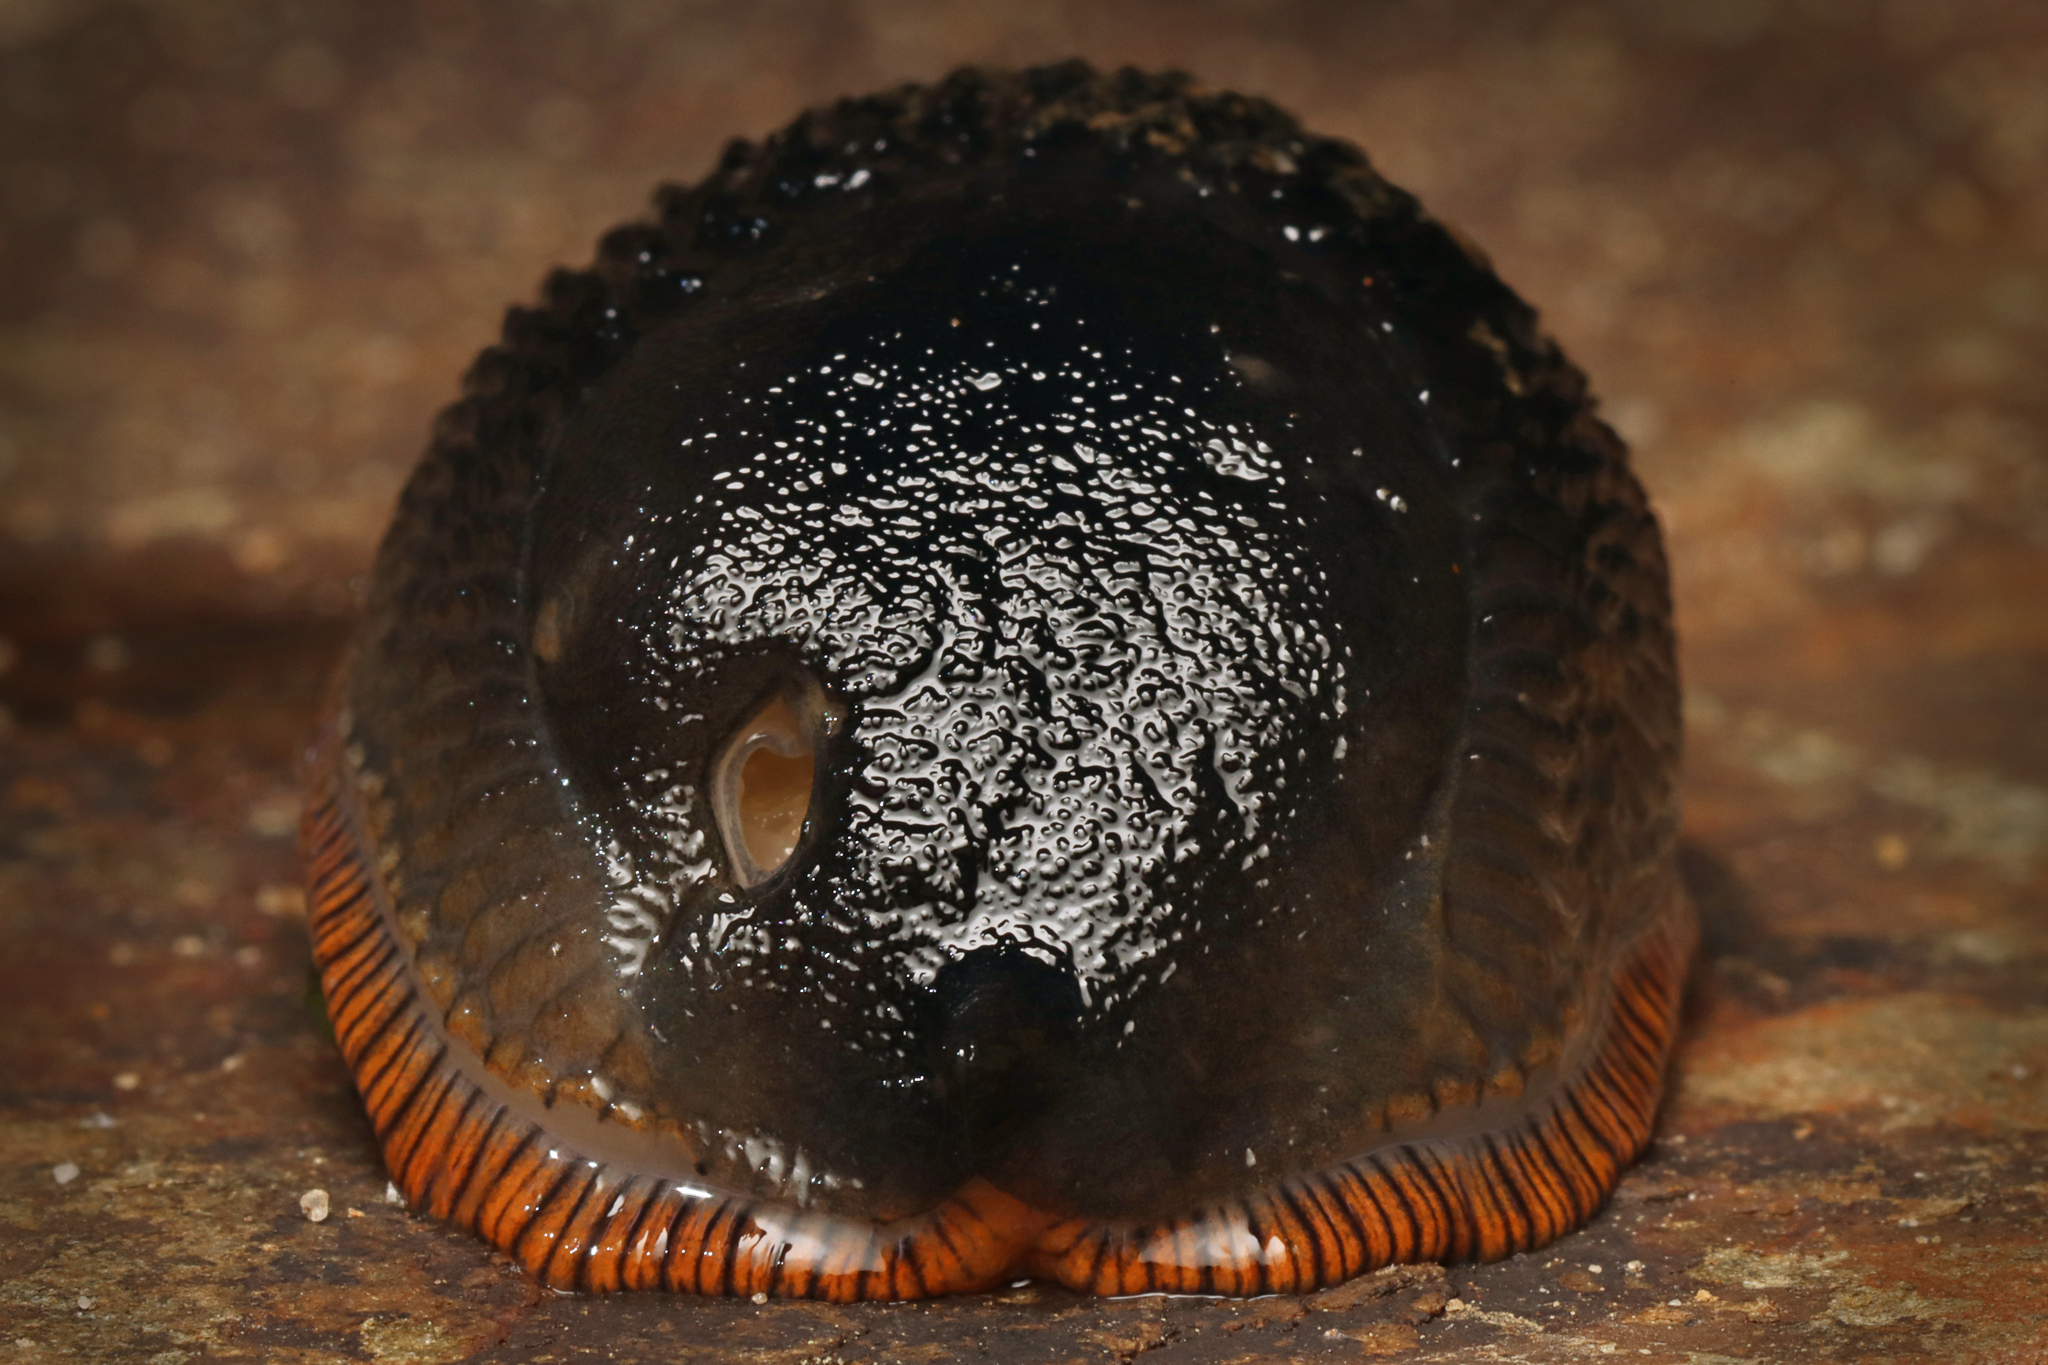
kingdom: Animalia
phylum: Mollusca
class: Gastropoda
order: Stylommatophora
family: Arionidae
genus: Arion
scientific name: Arion ater
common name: Black arion
